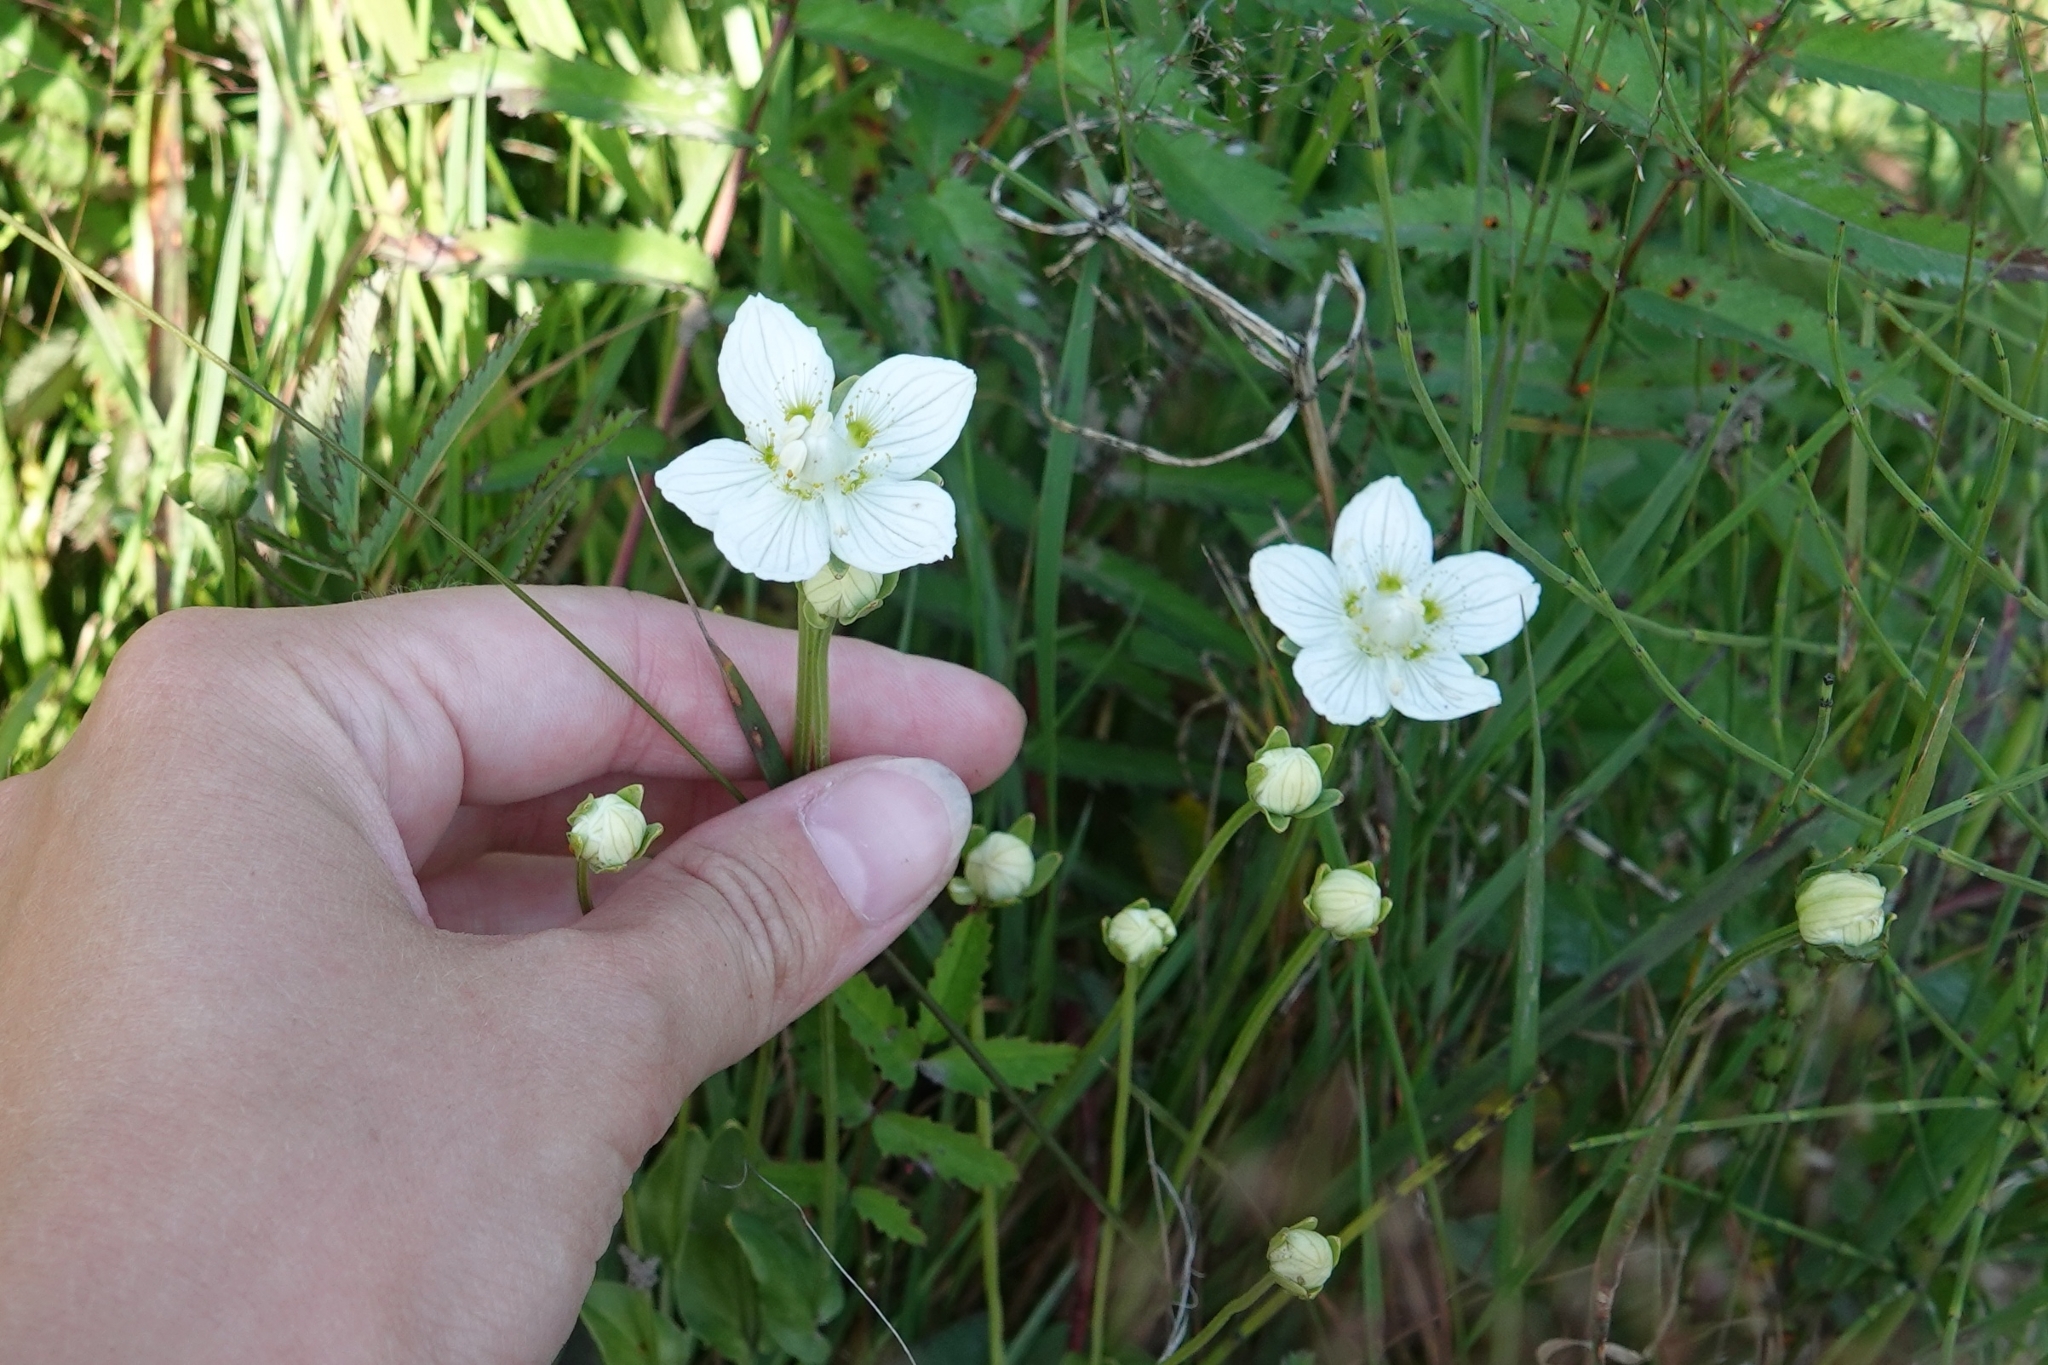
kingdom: Plantae
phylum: Tracheophyta
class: Magnoliopsida
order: Celastrales
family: Parnassiaceae
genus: Parnassia
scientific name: Parnassia palustris
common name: Grass-of-parnassus
